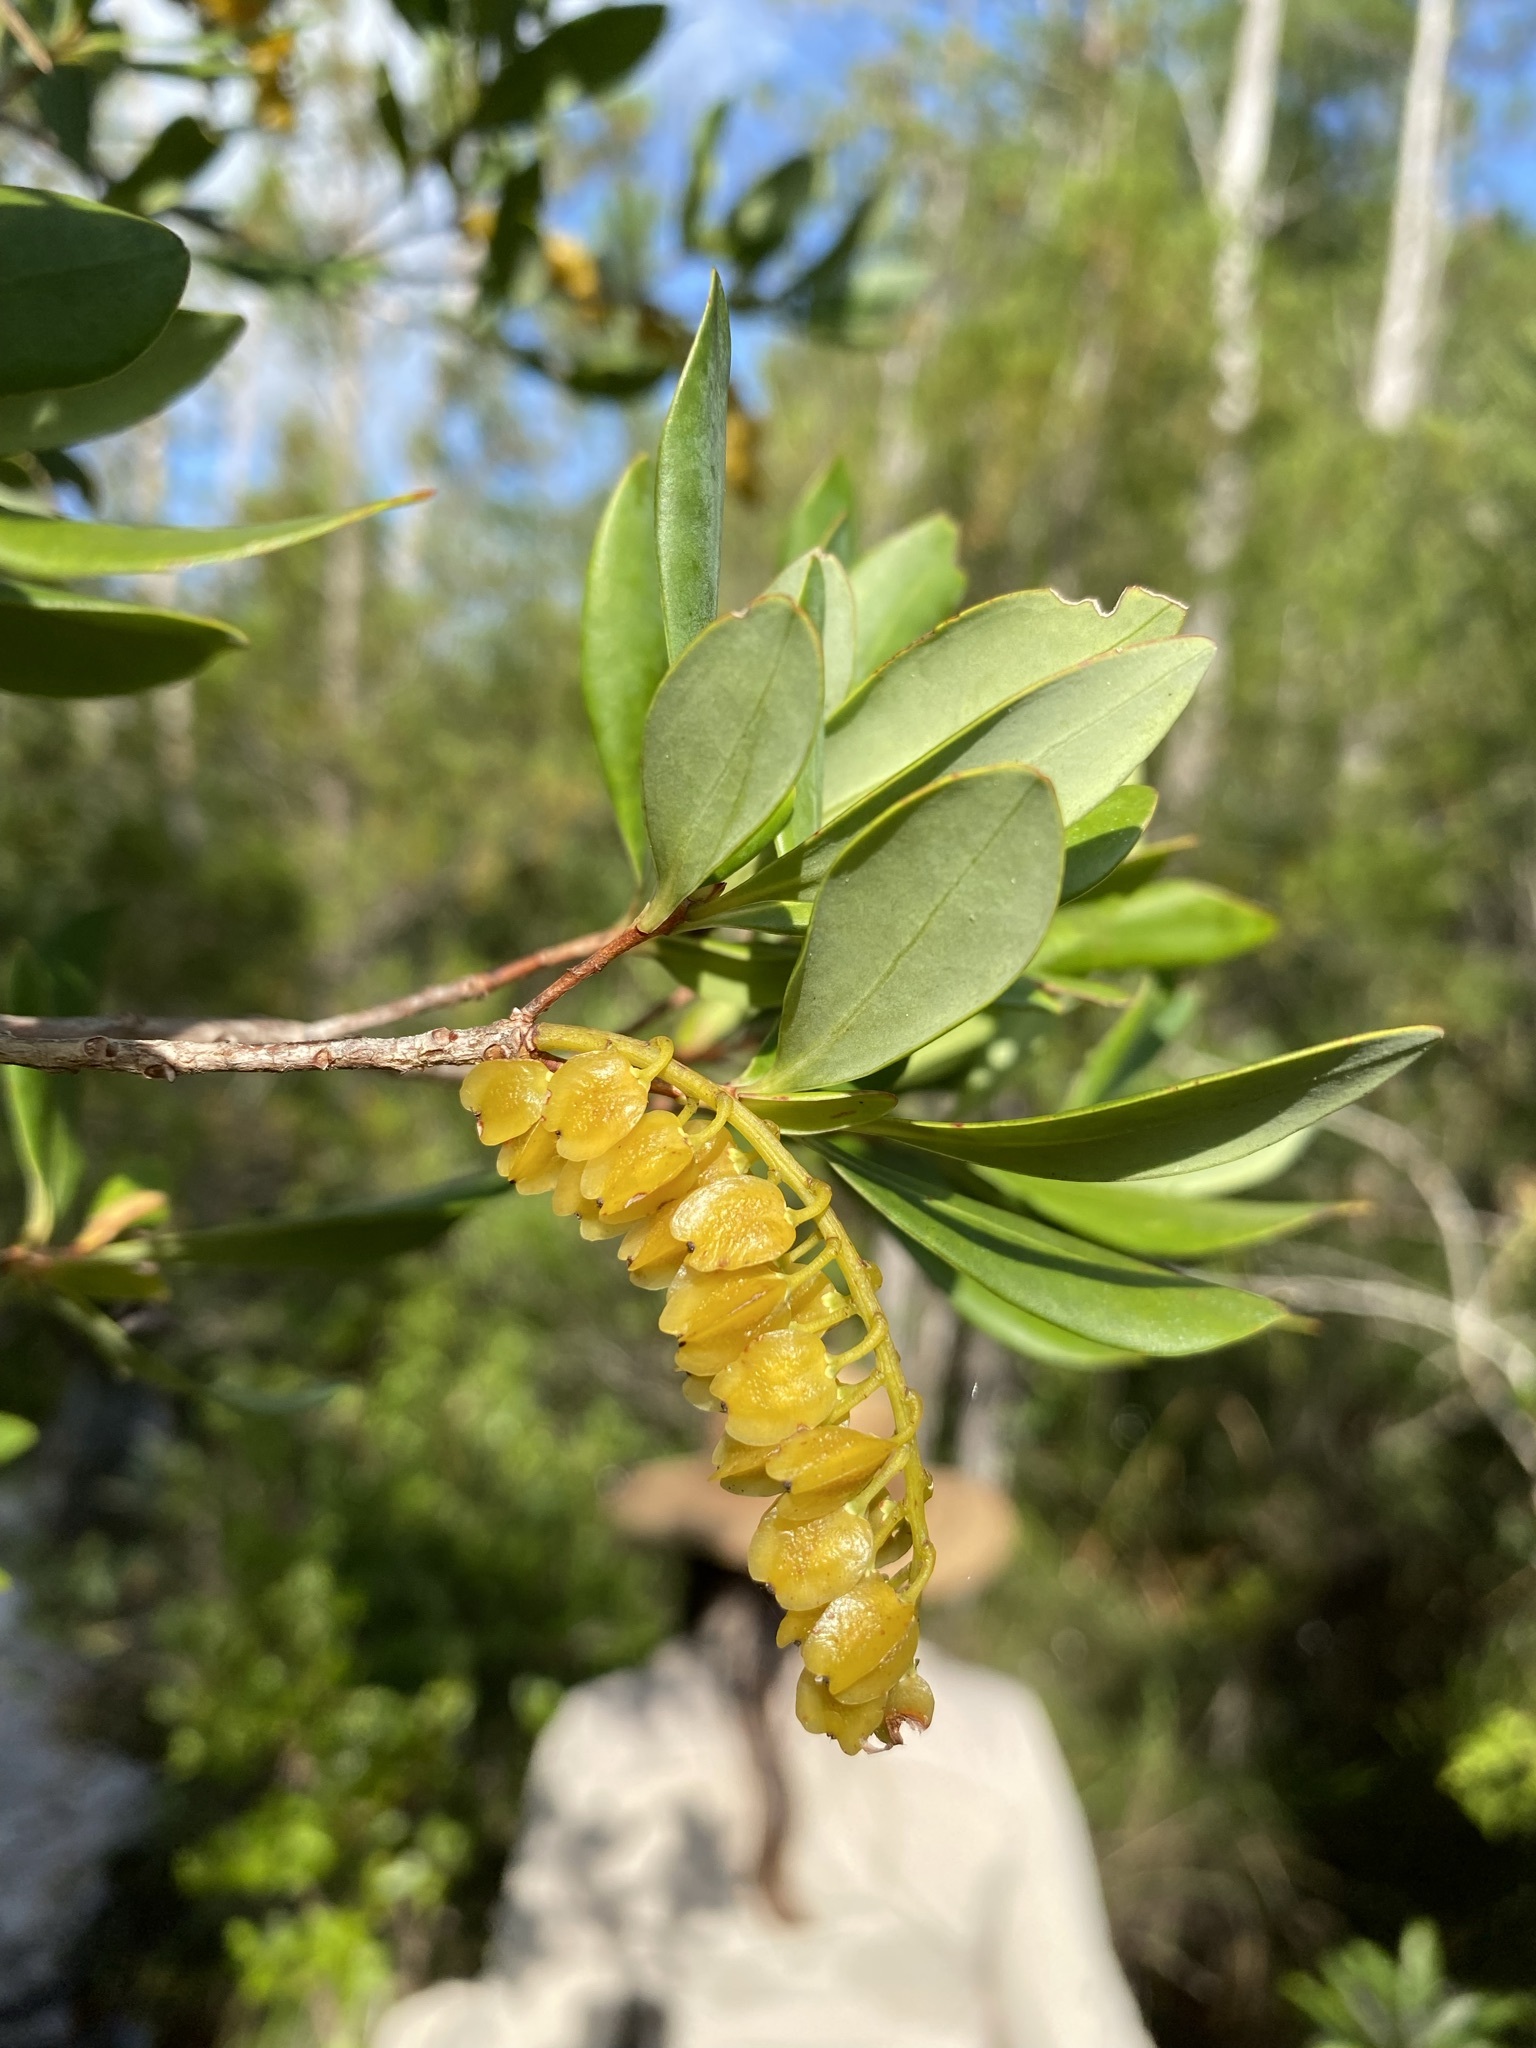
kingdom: Plantae
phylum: Tracheophyta
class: Magnoliopsida
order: Ericales
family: Cyrillaceae
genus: Cliftonia
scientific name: Cliftonia monophylla
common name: Titi
